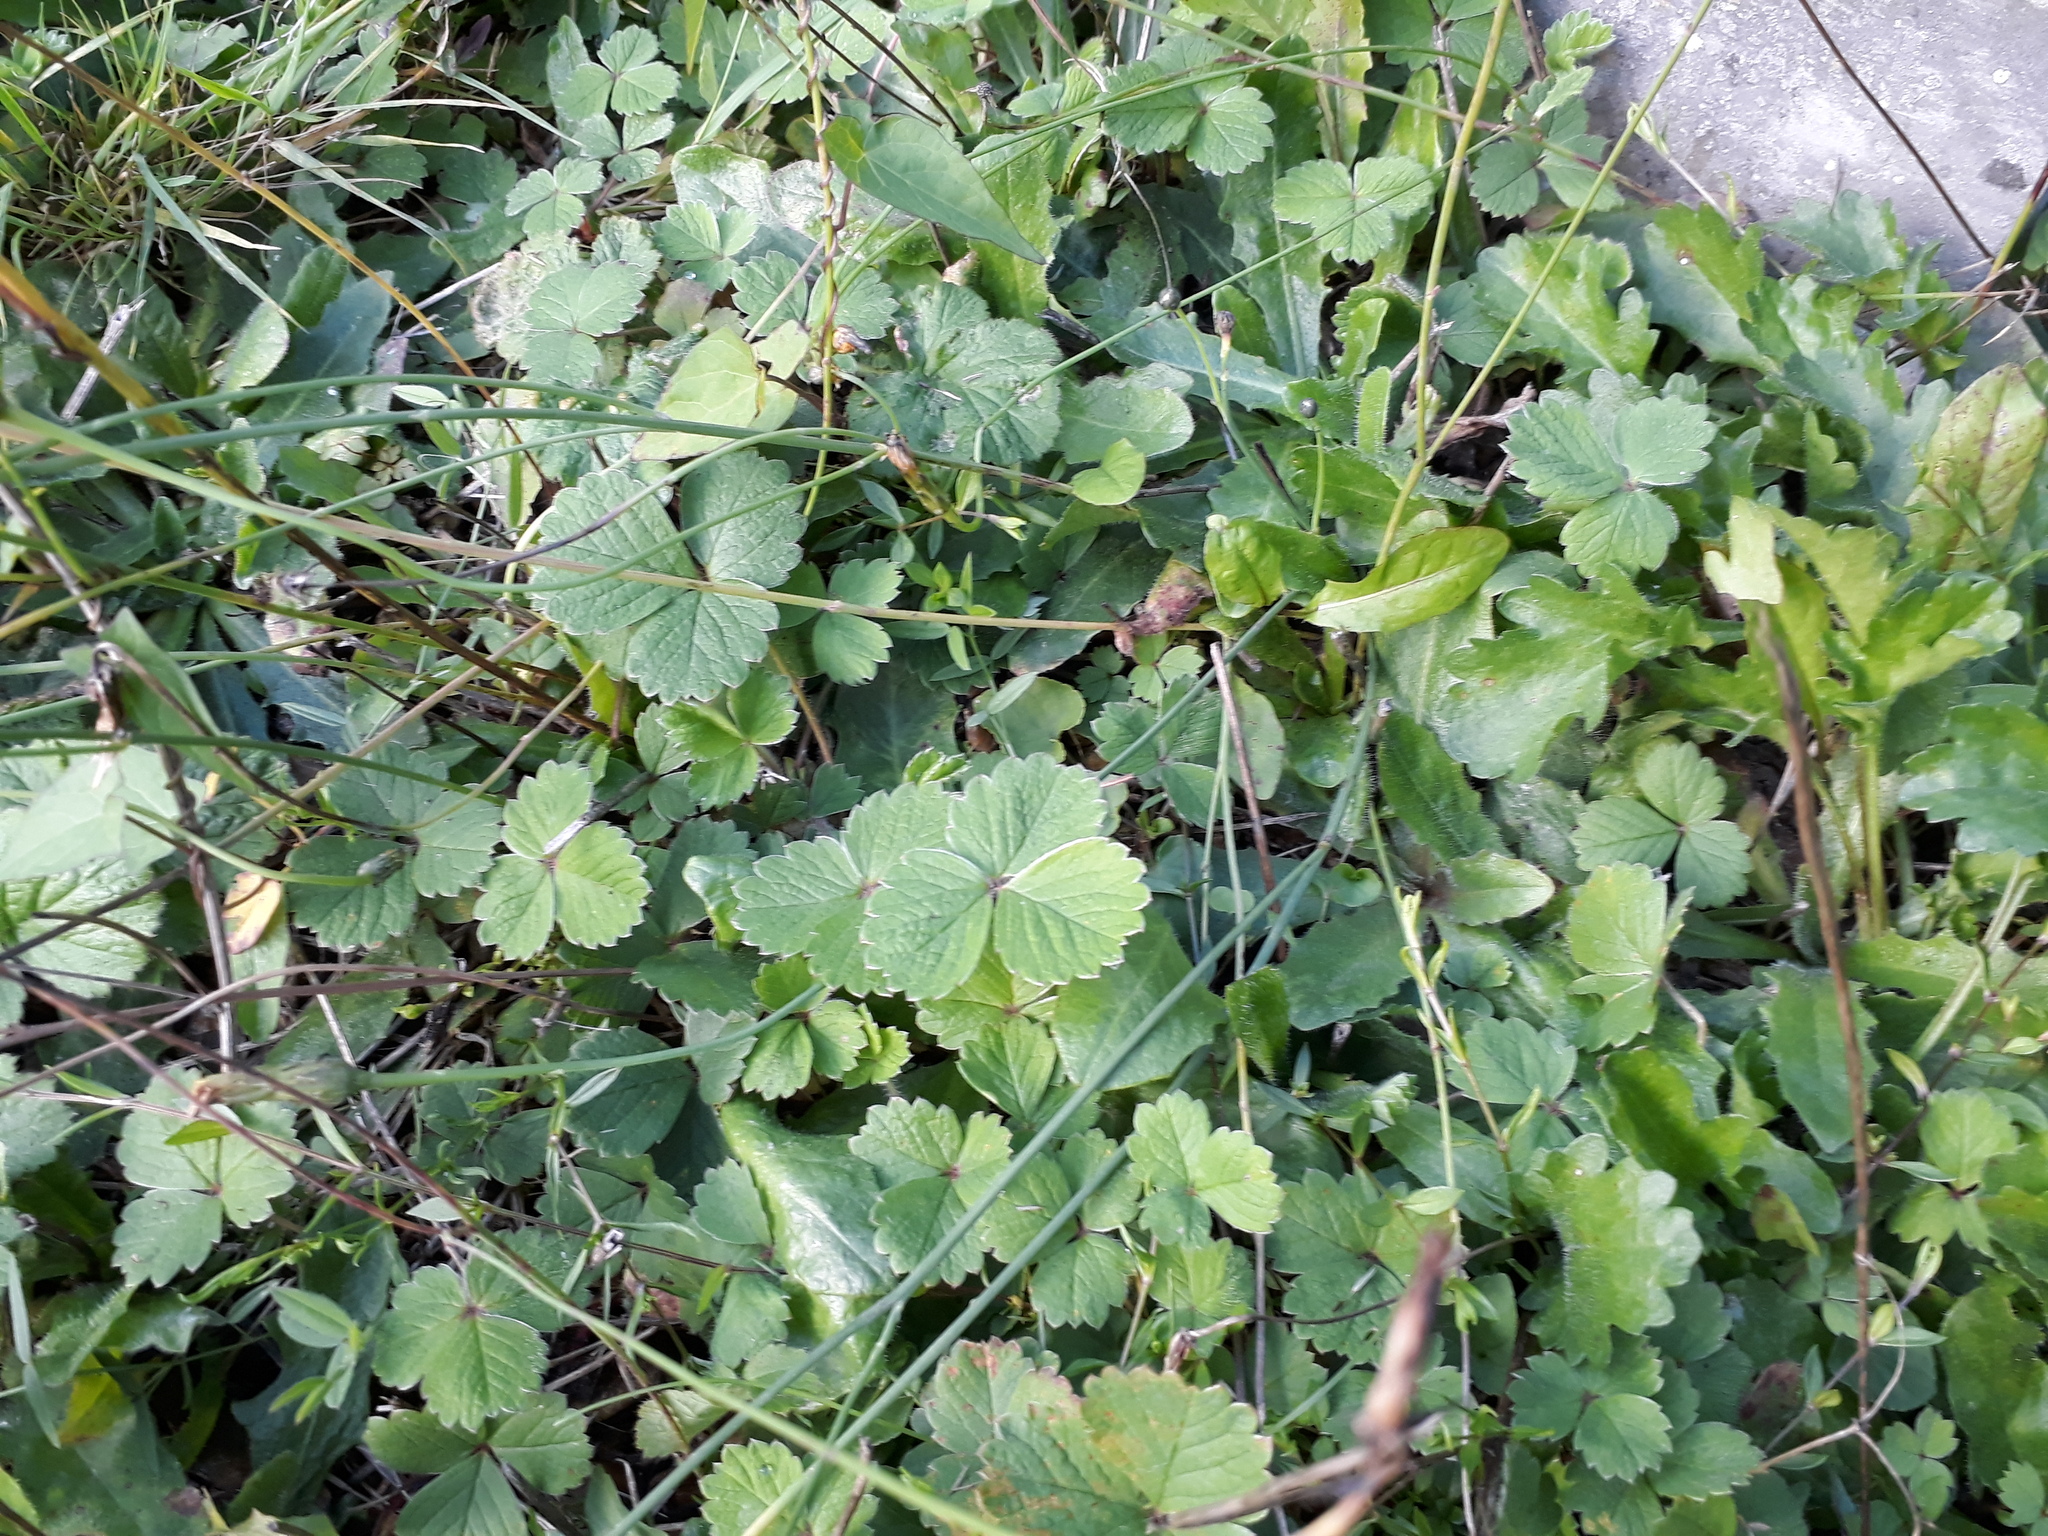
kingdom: Plantae
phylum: Tracheophyta
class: Magnoliopsida
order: Rosales
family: Rosaceae
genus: Potentilla
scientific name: Potentilla sterilis
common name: Barren strawberry
